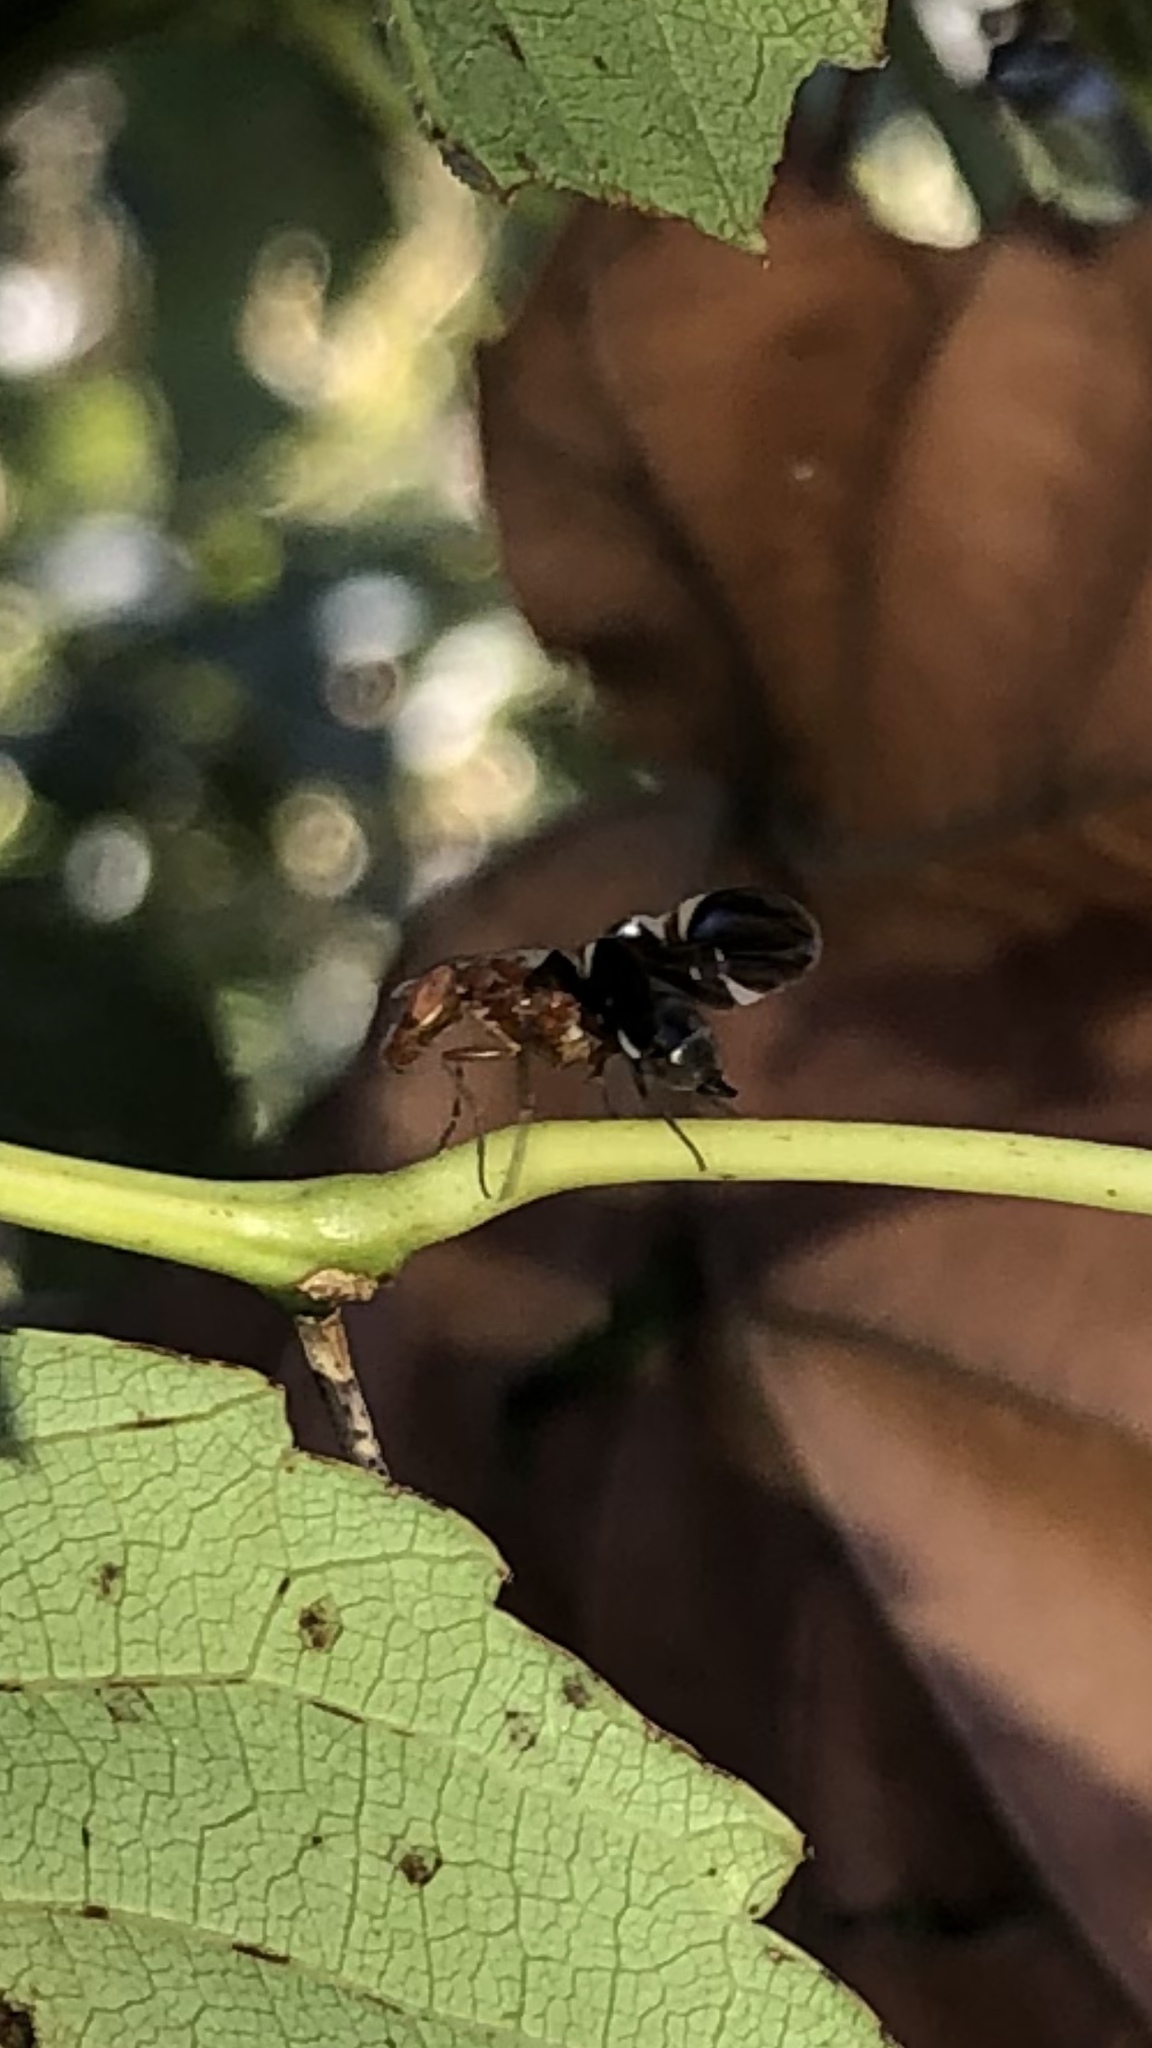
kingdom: Animalia
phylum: Arthropoda
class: Insecta
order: Diptera
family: Ulidiidae
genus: Delphinia
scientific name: Delphinia picta
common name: Common picture-winged fly
